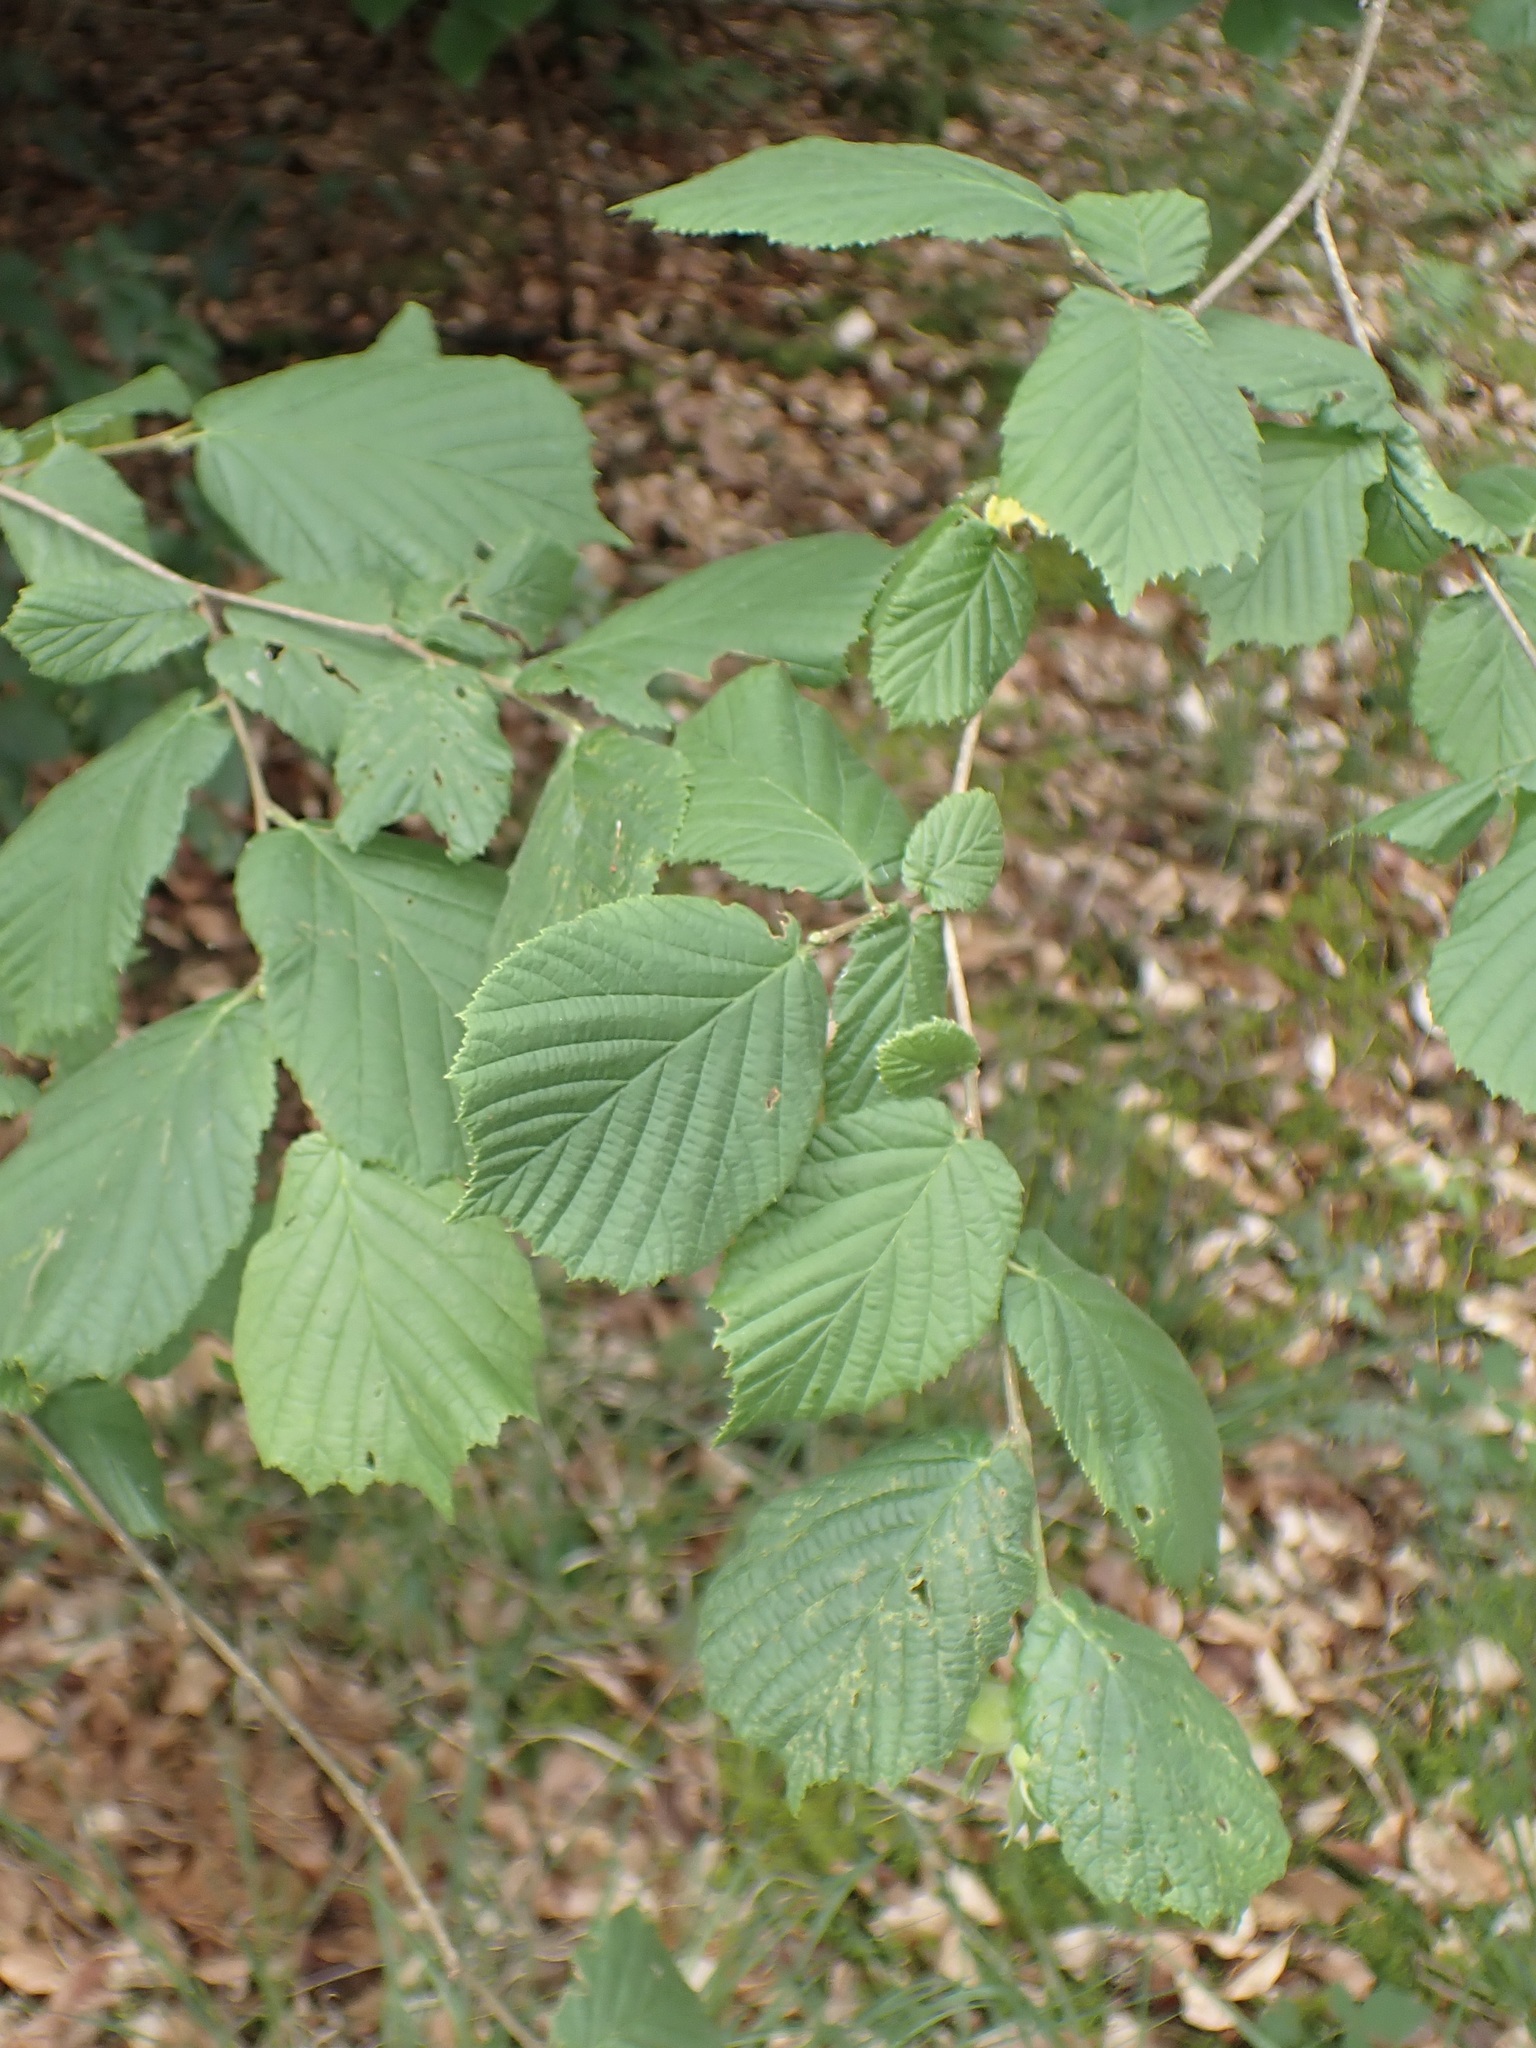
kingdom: Plantae
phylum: Tracheophyta
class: Magnoliopsida
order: Fagales
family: Betulaceae
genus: Corylus
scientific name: Corylus avellana
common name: European hazel
